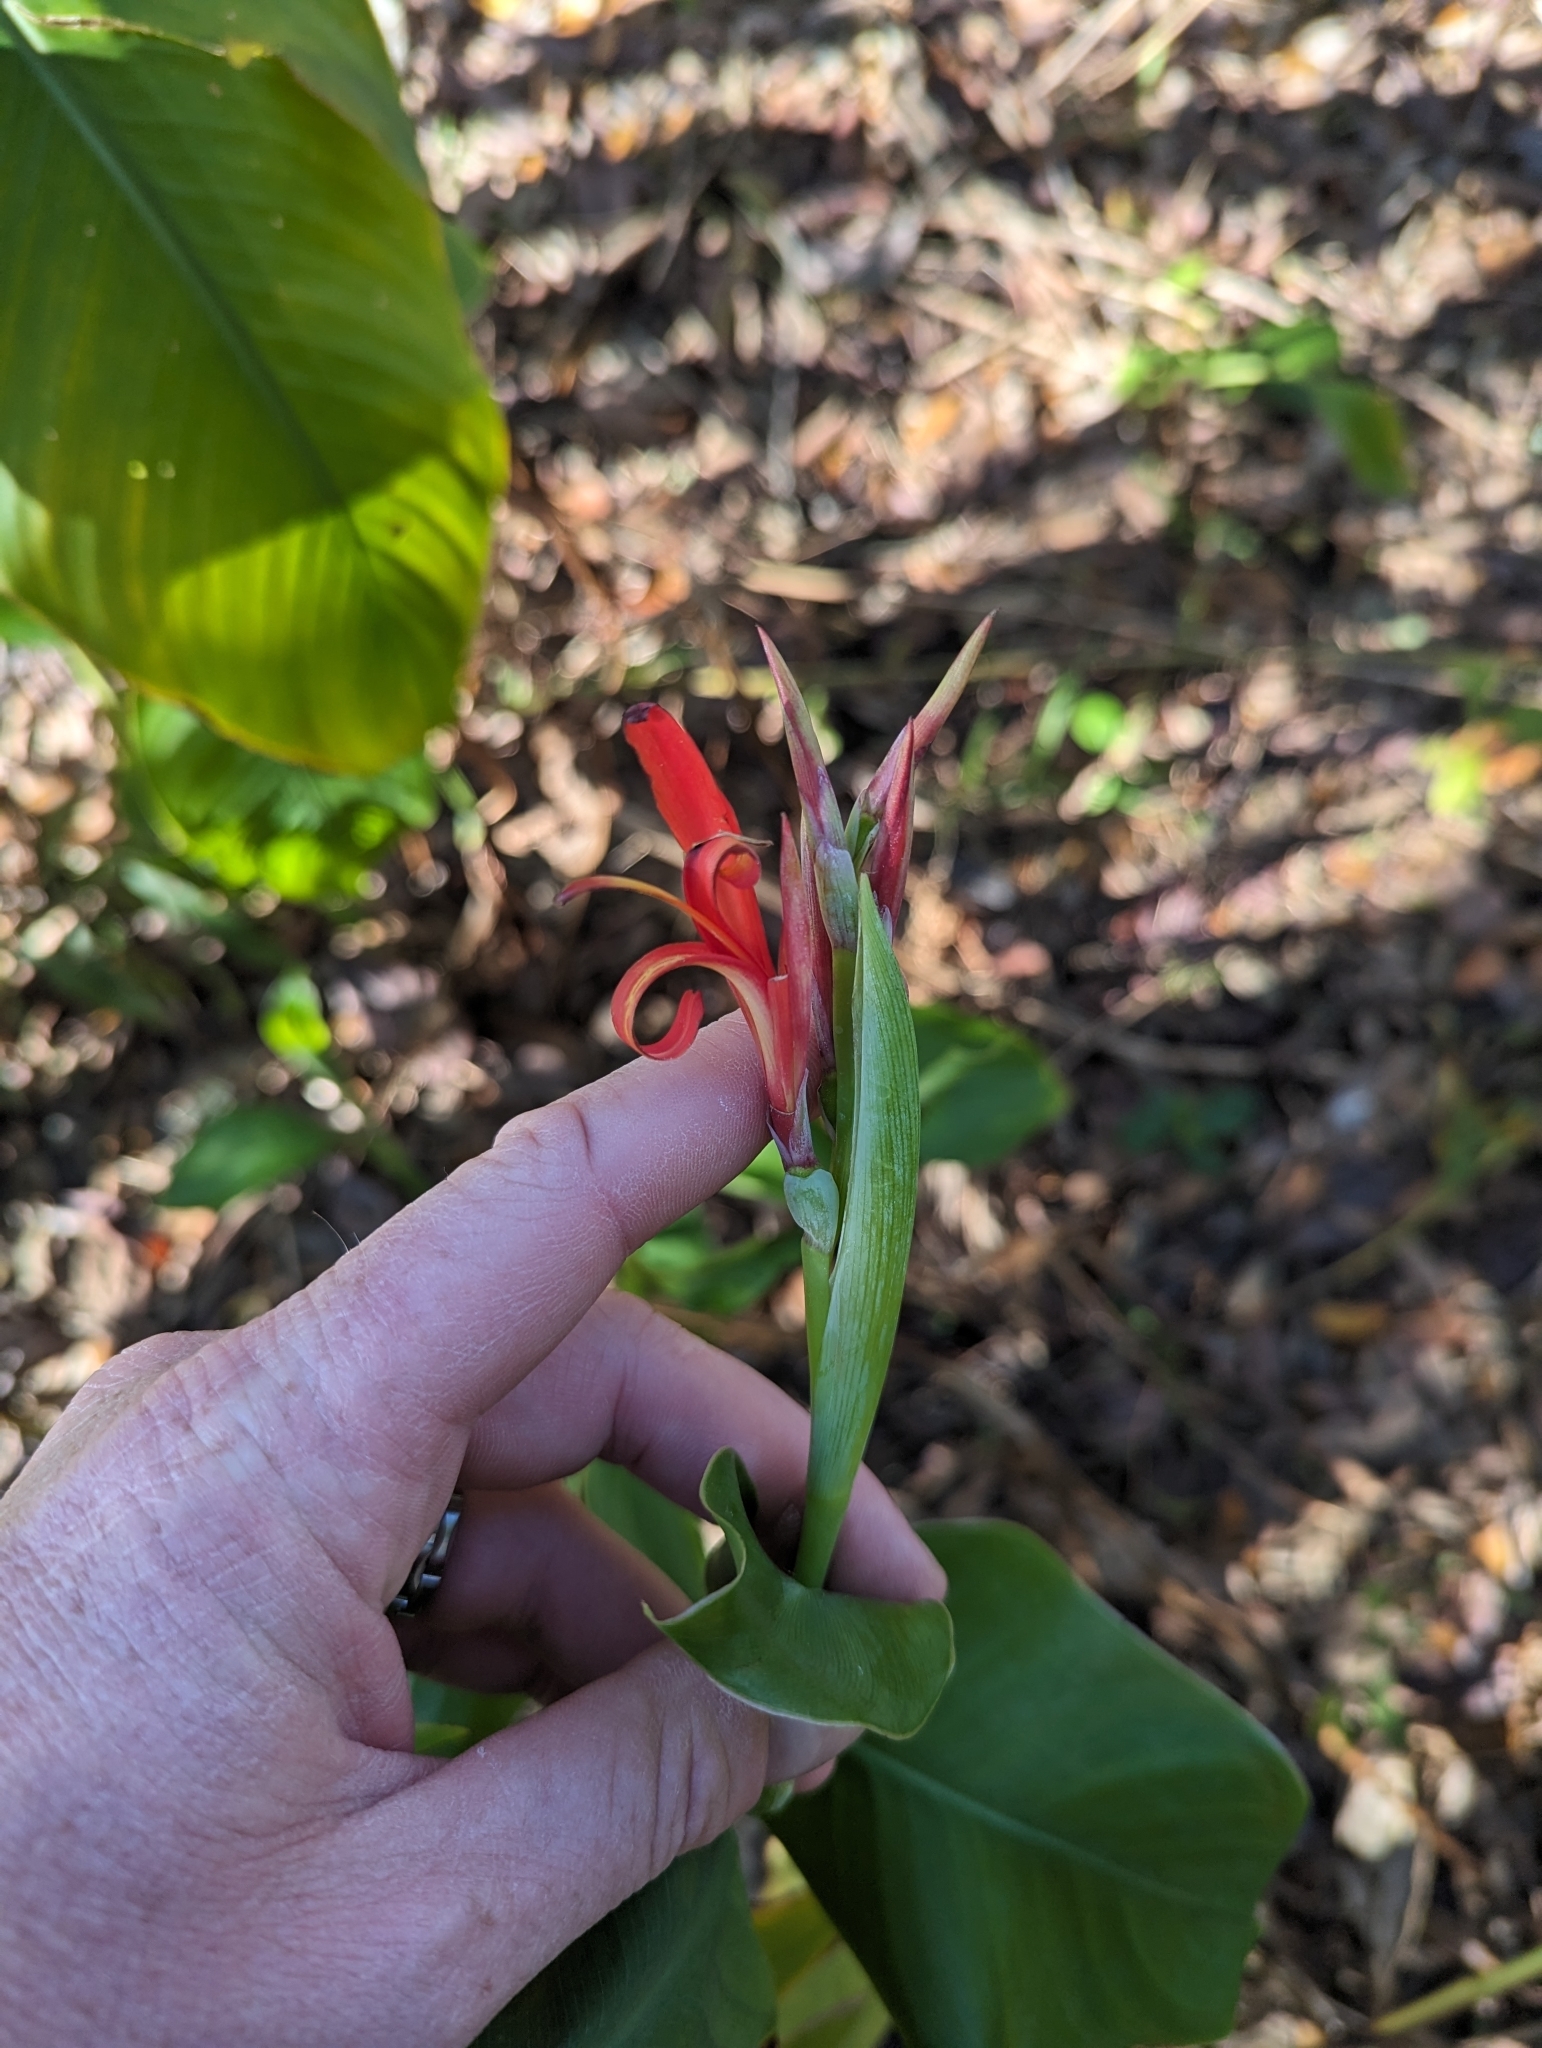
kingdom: Plantae
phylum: Tracheophyta
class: Liliopsida
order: Zingiberales
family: Cannaceae
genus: Canna
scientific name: Canna indica
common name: Indian shot
